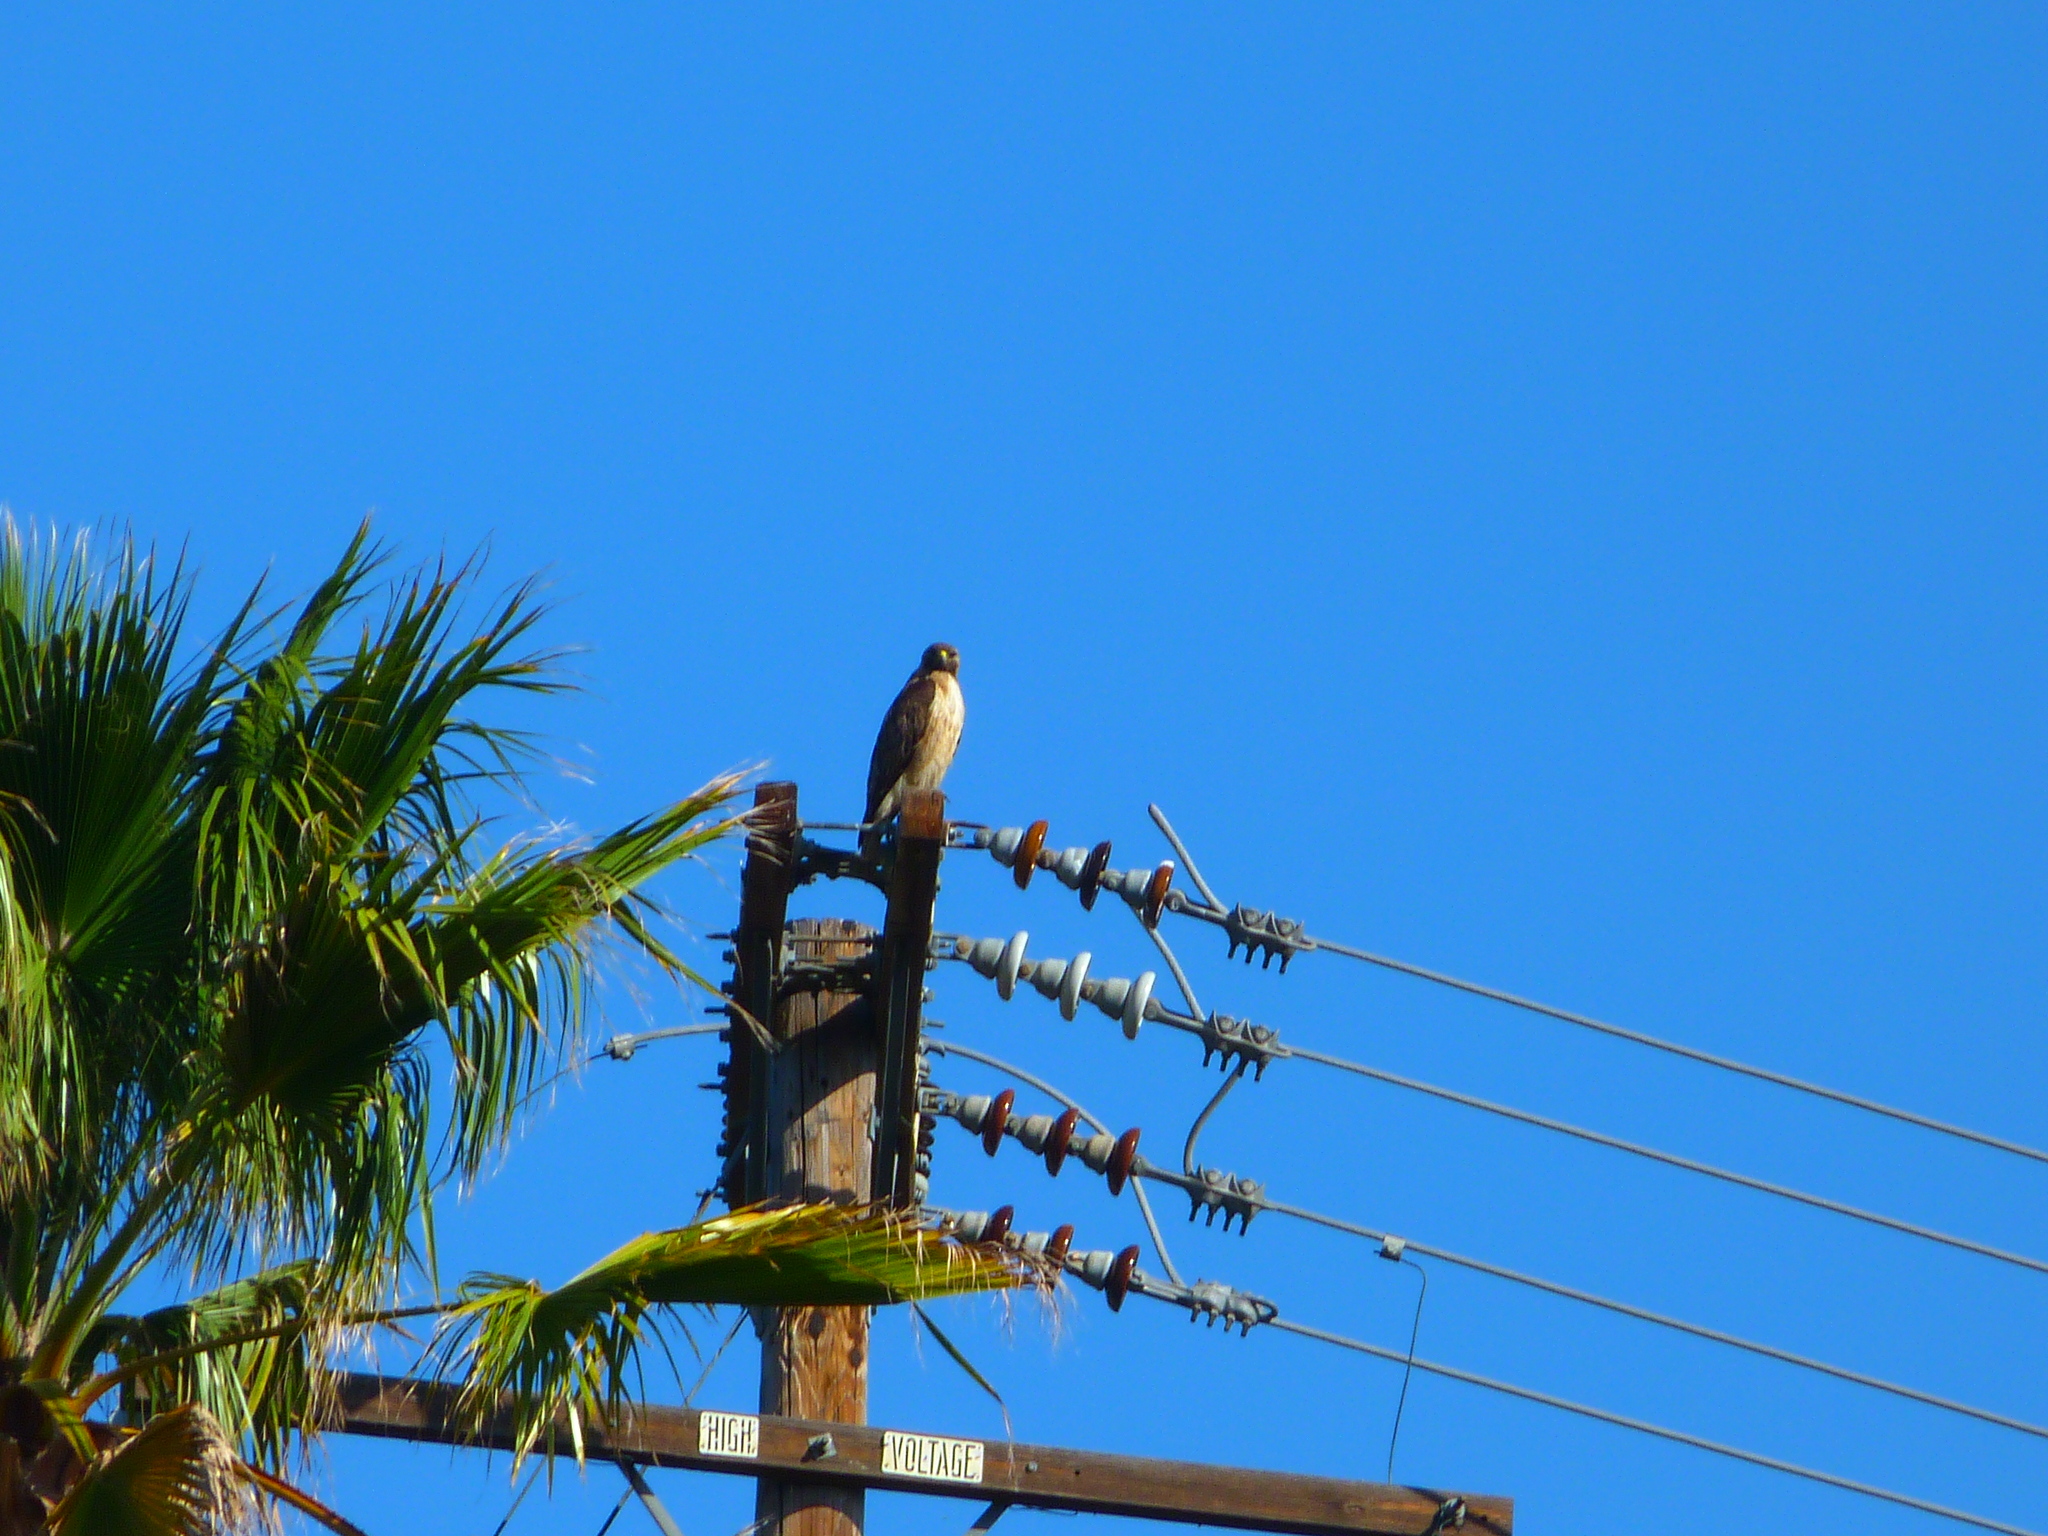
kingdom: Animalia
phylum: Chordata
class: Aves
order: Accipitriformes
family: Accipitridae
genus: Buteo
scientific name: Buteo jamaicensis
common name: Red-tailed hawk
